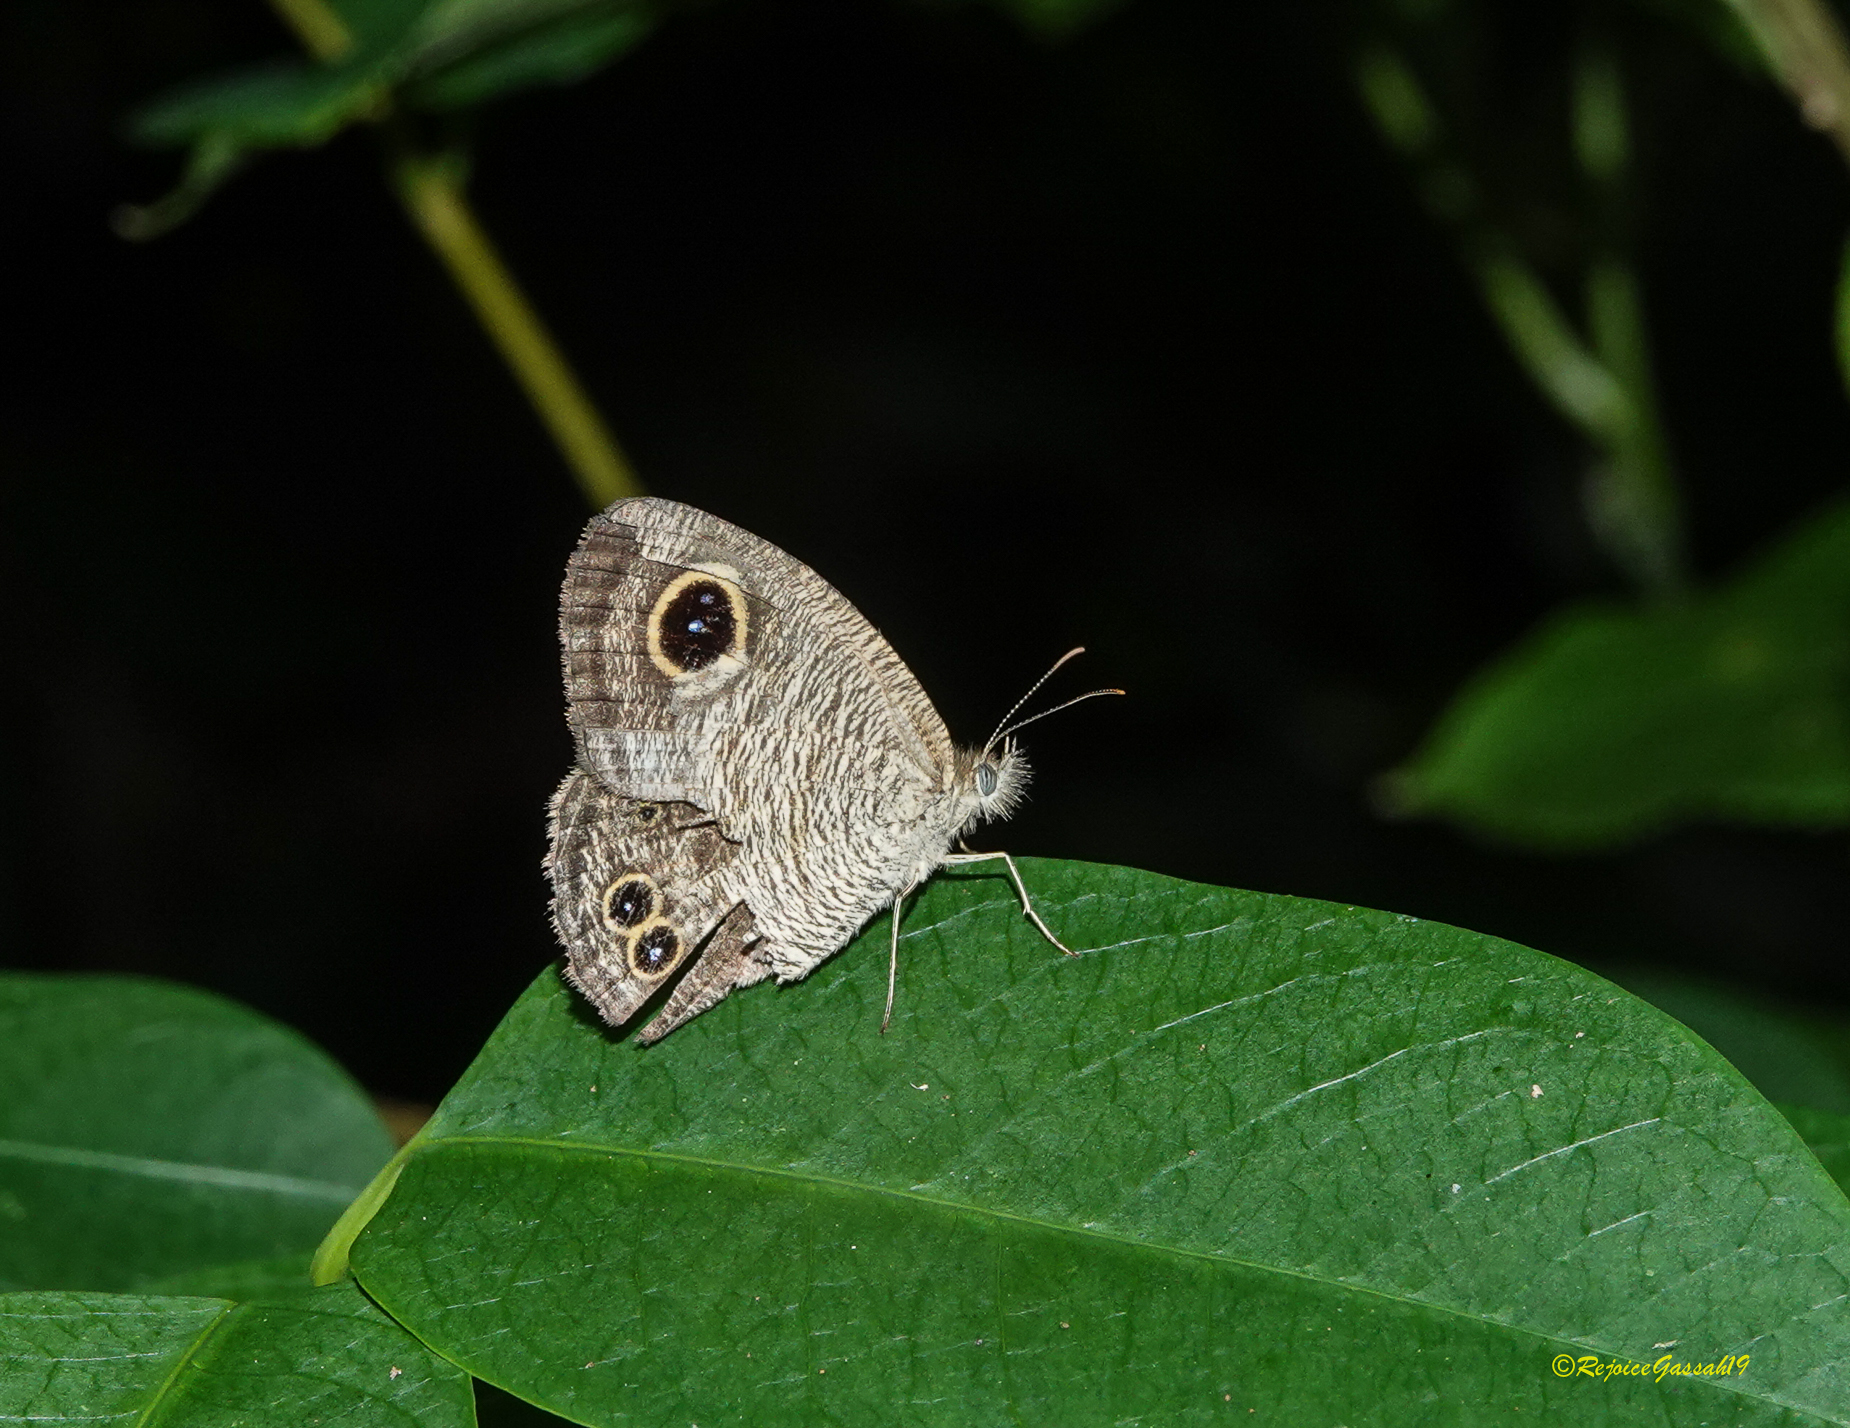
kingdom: Animalia
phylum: Arthropoda
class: Insecta
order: Lepidoptera
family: Nymphalidae
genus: Ypthima
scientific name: Ypthima baldus
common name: Common five-ring
